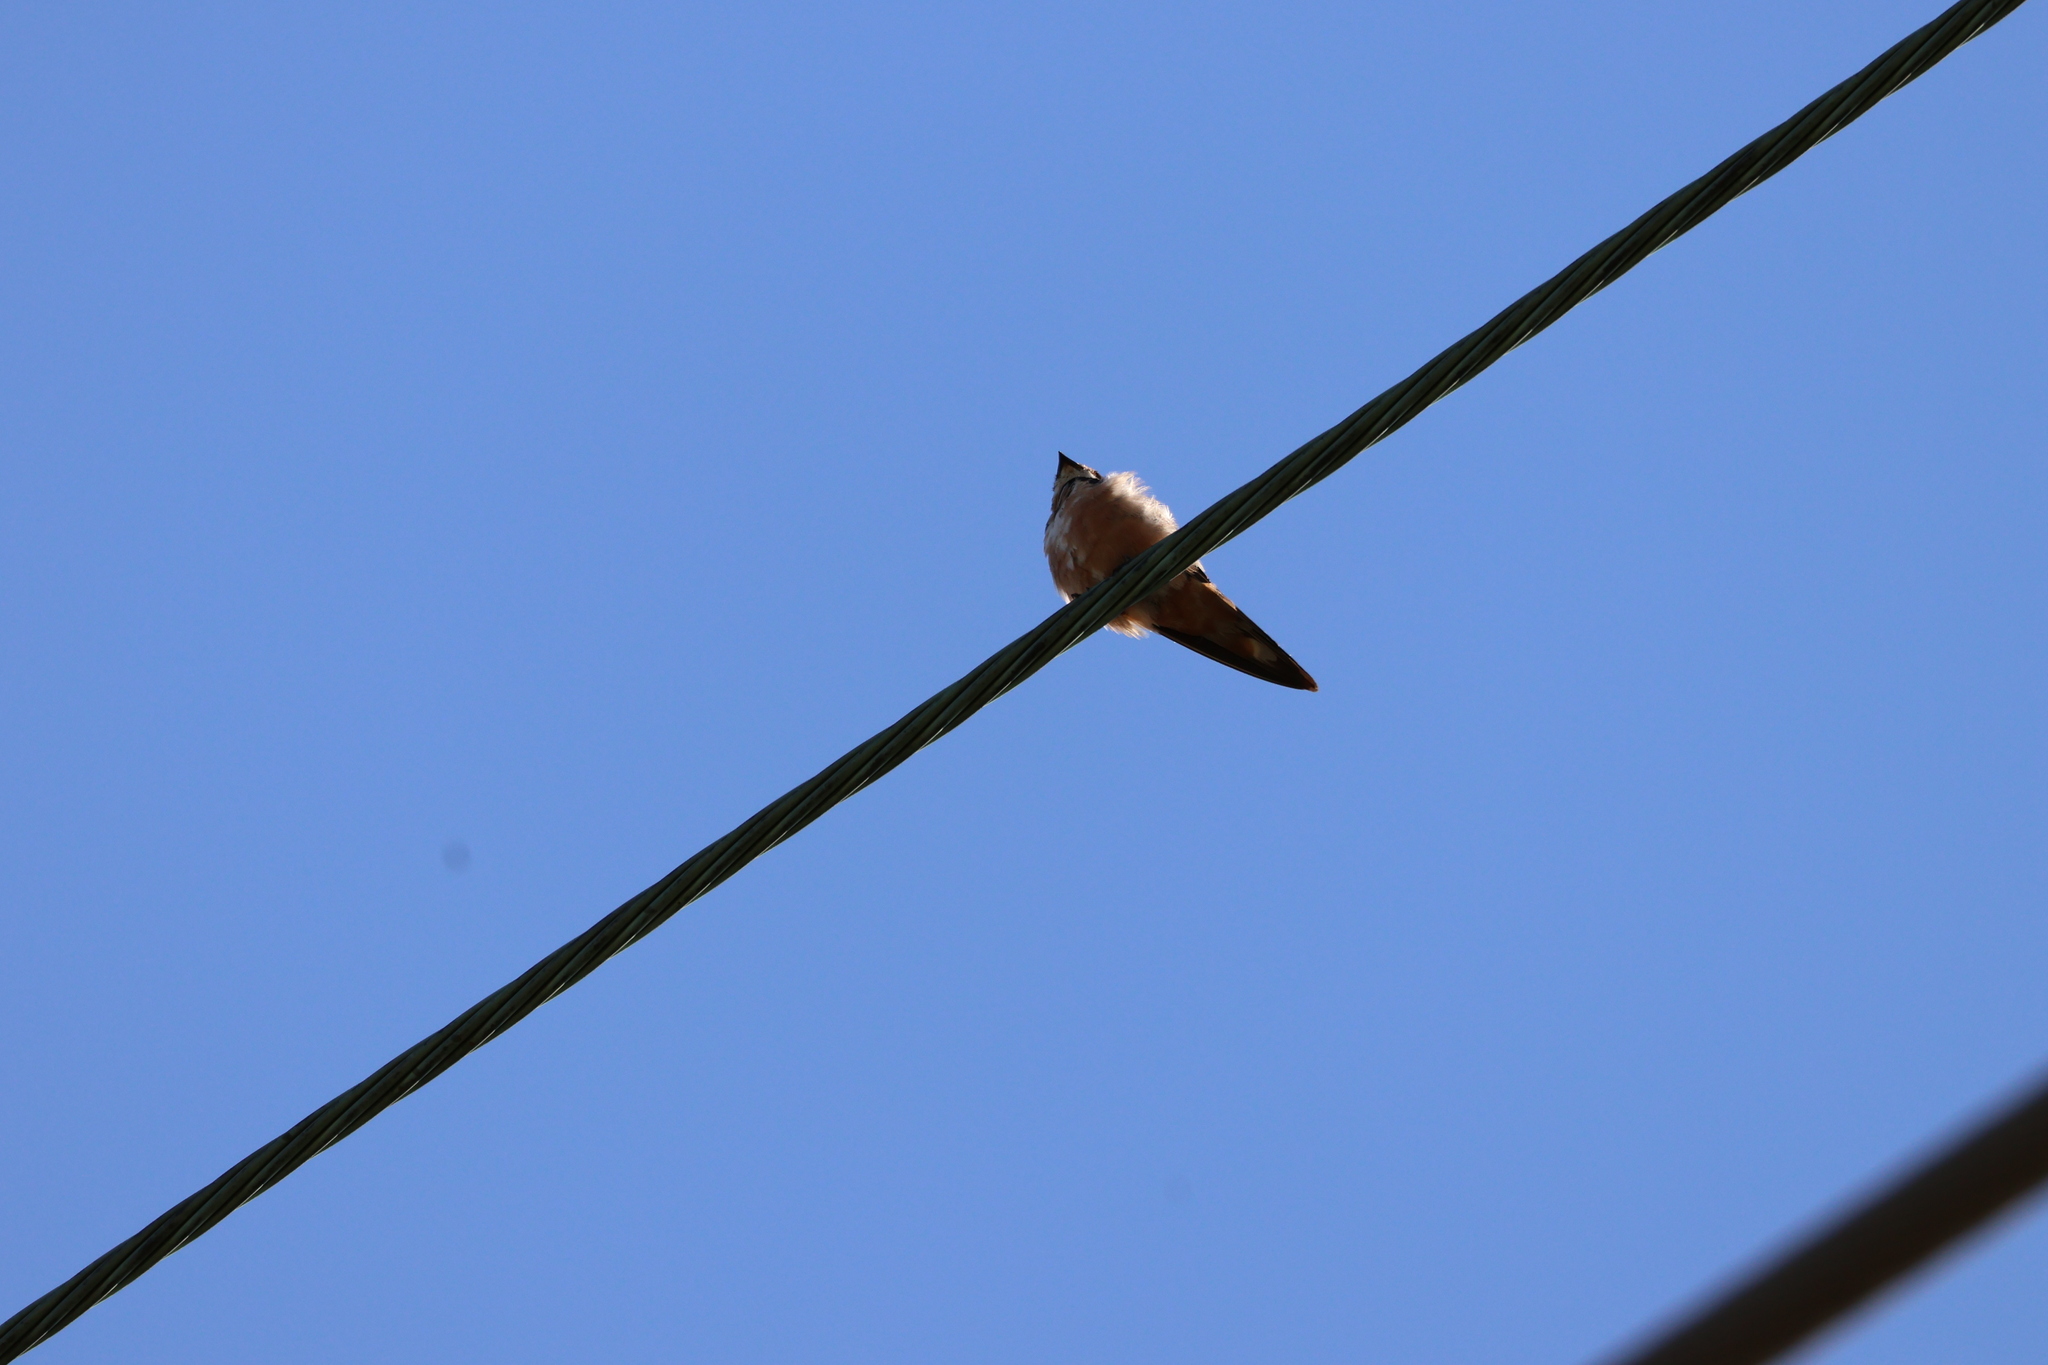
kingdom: Animalia
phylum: Chordata
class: Aves
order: Passeriformes
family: Hirundinidae
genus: Hirundo
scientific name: Hirundo rustica
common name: Barn swallow
